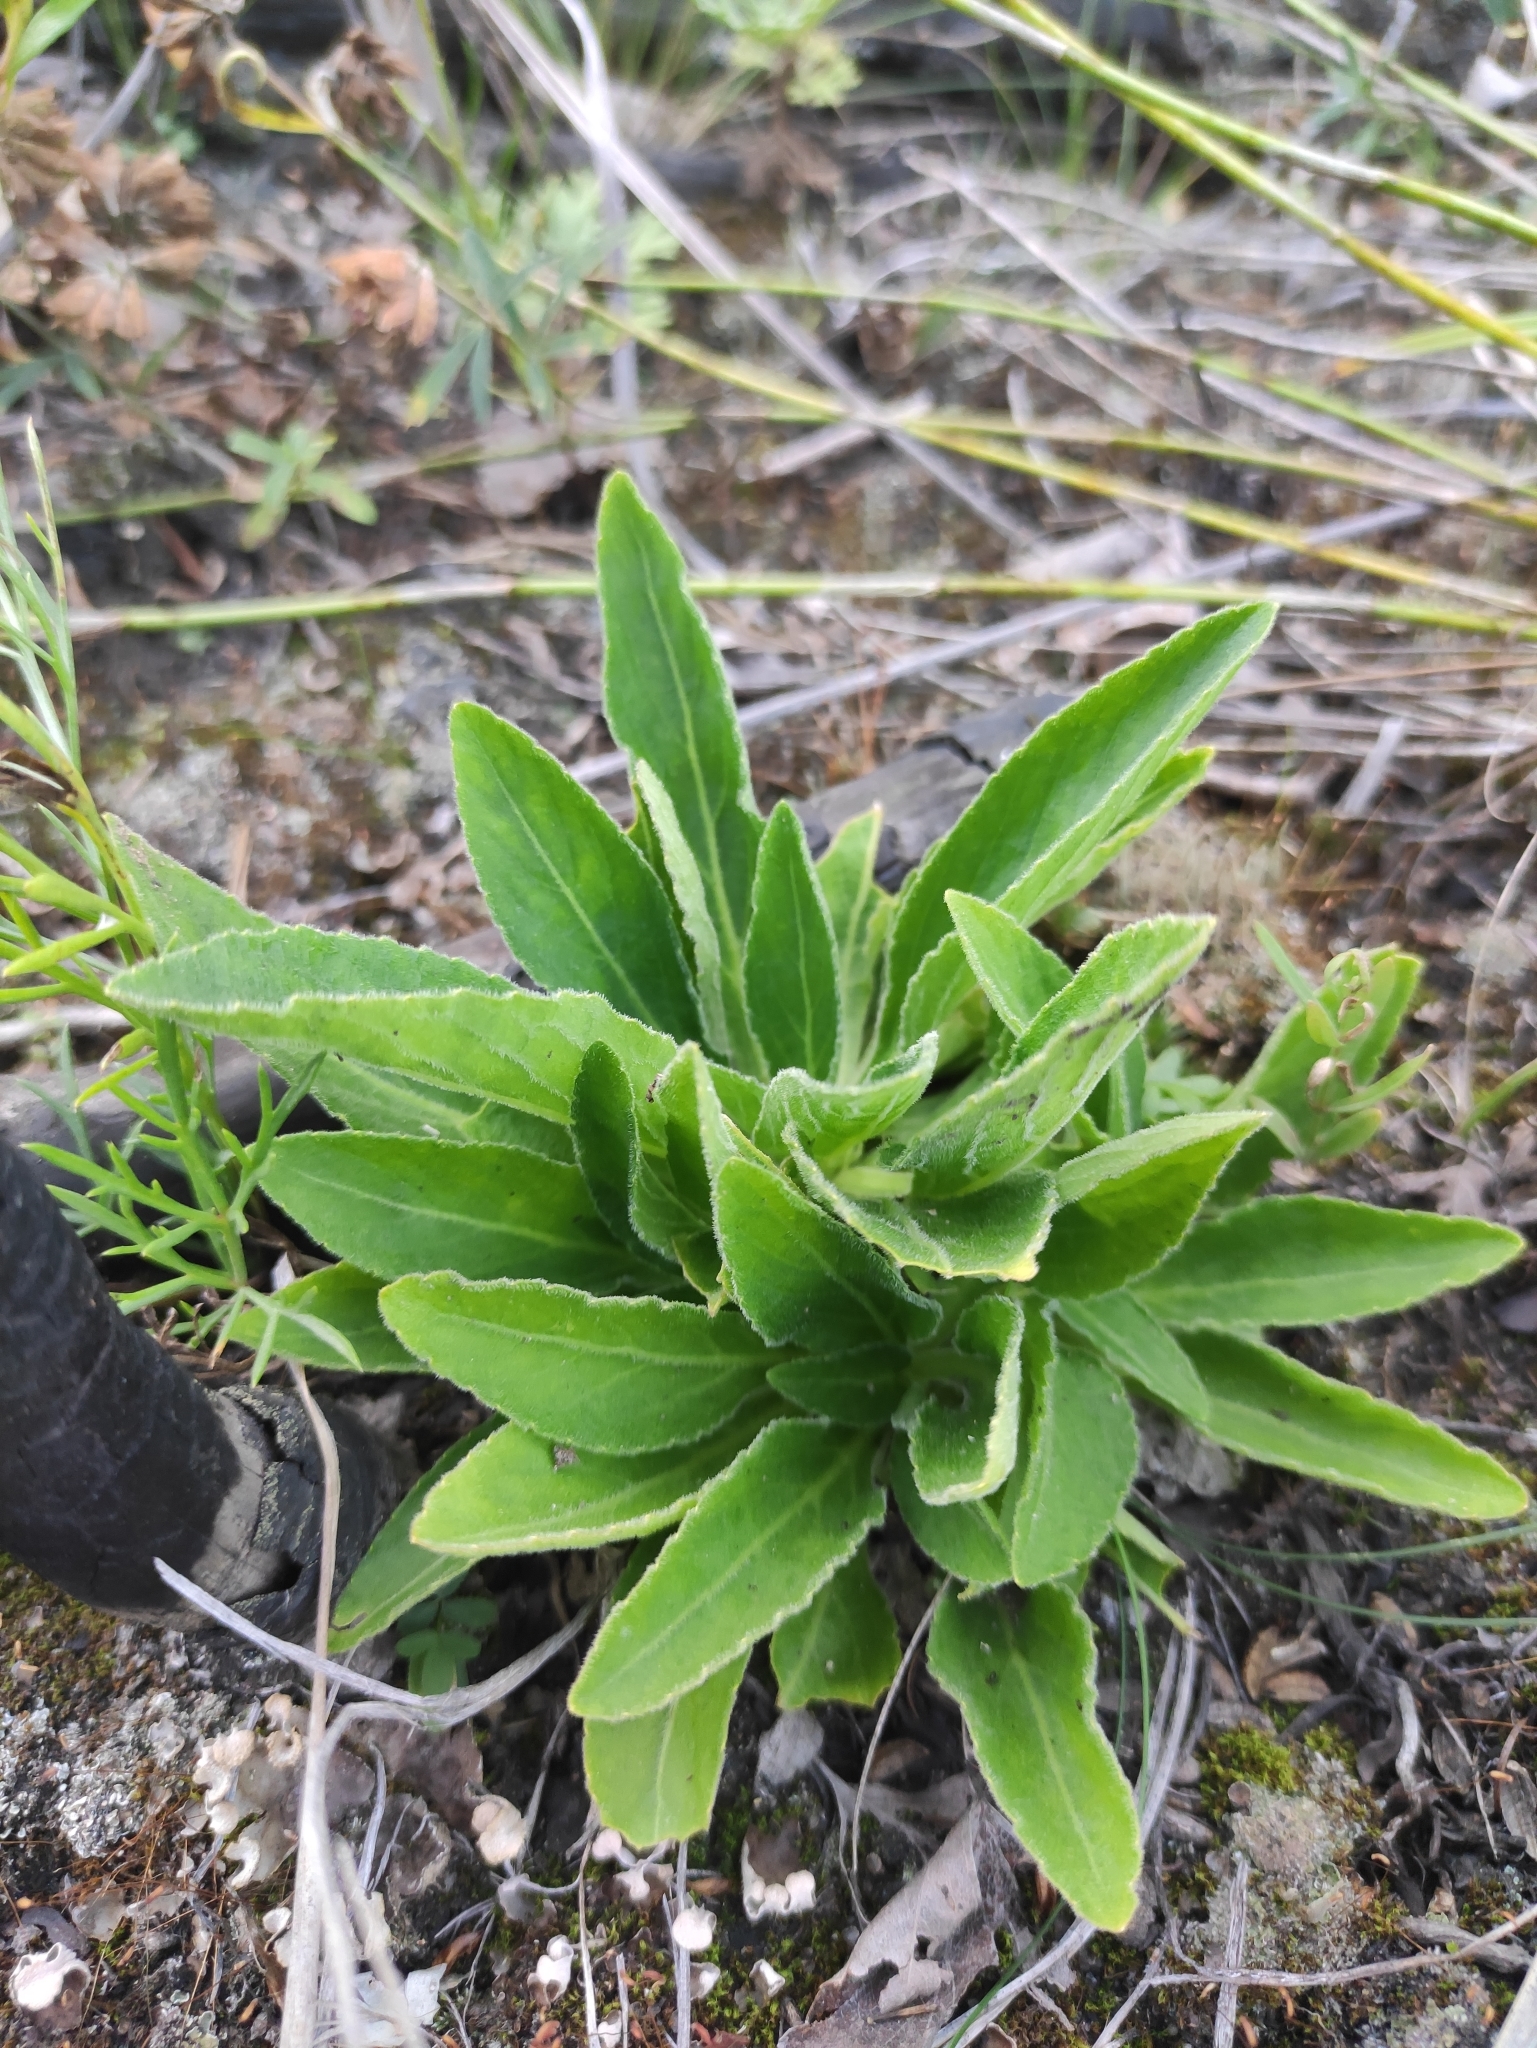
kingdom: Plantae
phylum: Tracheophyta
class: Magnoliopsida
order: Malpighiales
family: Violaceae
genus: Viola
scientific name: Viola gmeliniana
